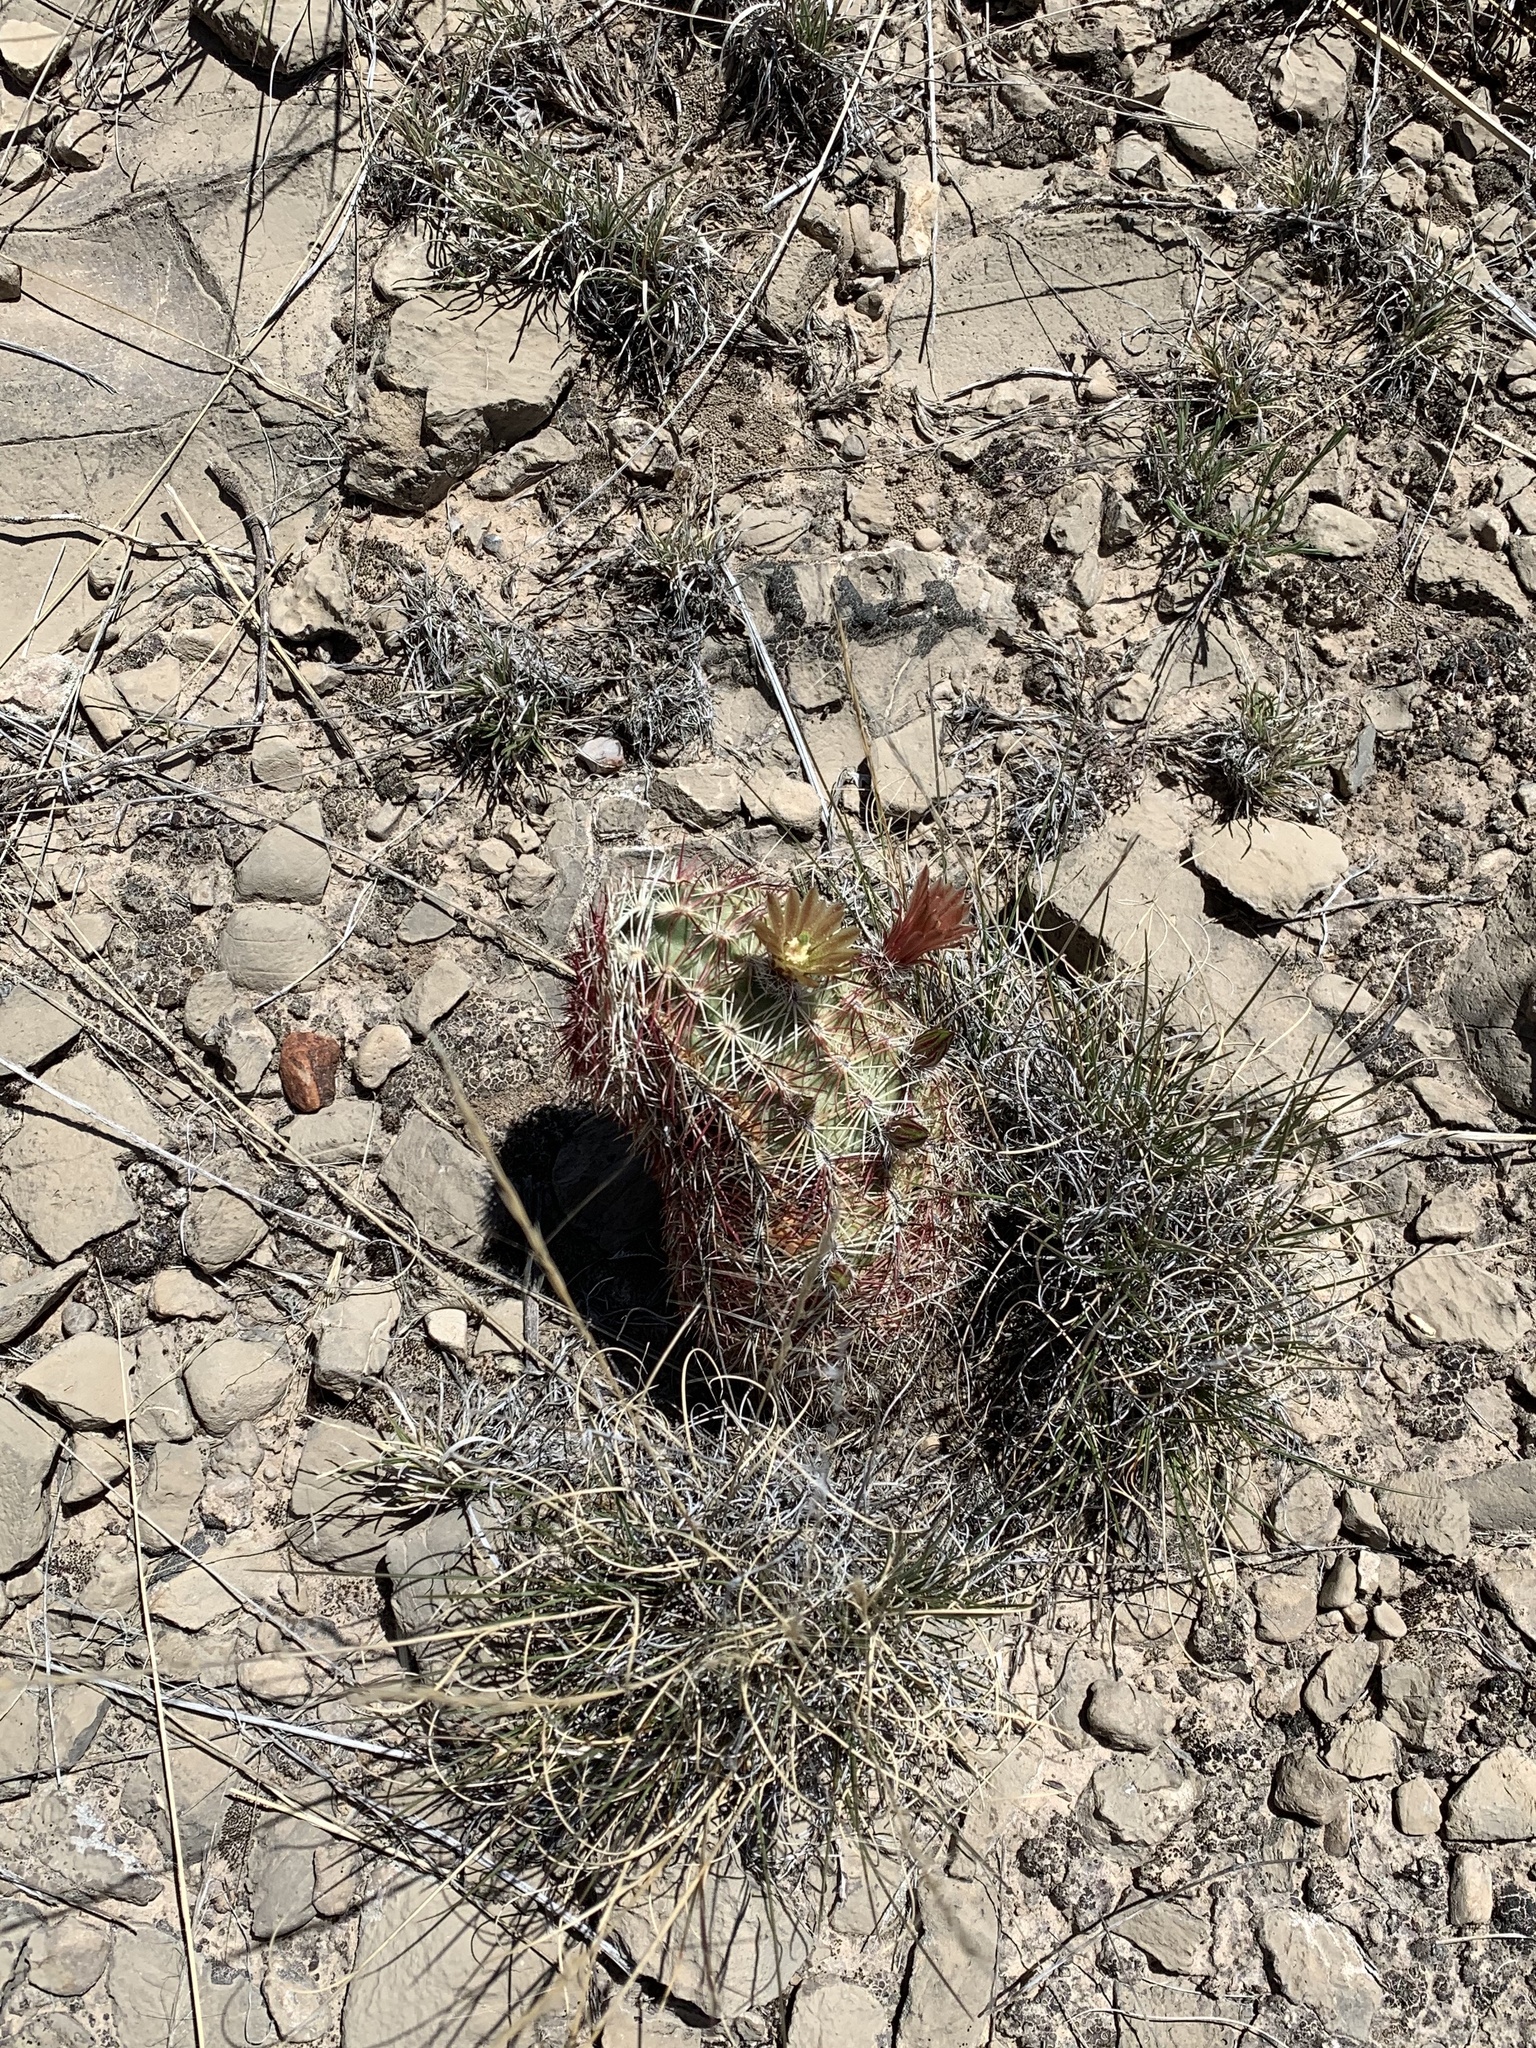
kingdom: Plantae
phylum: Tracheophyta
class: Magnoliopsida
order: Caryophyllales
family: Cactaceae
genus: Echinocereus
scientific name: Echinocereus viridiflorus
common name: Nylon hedgehog cactus
